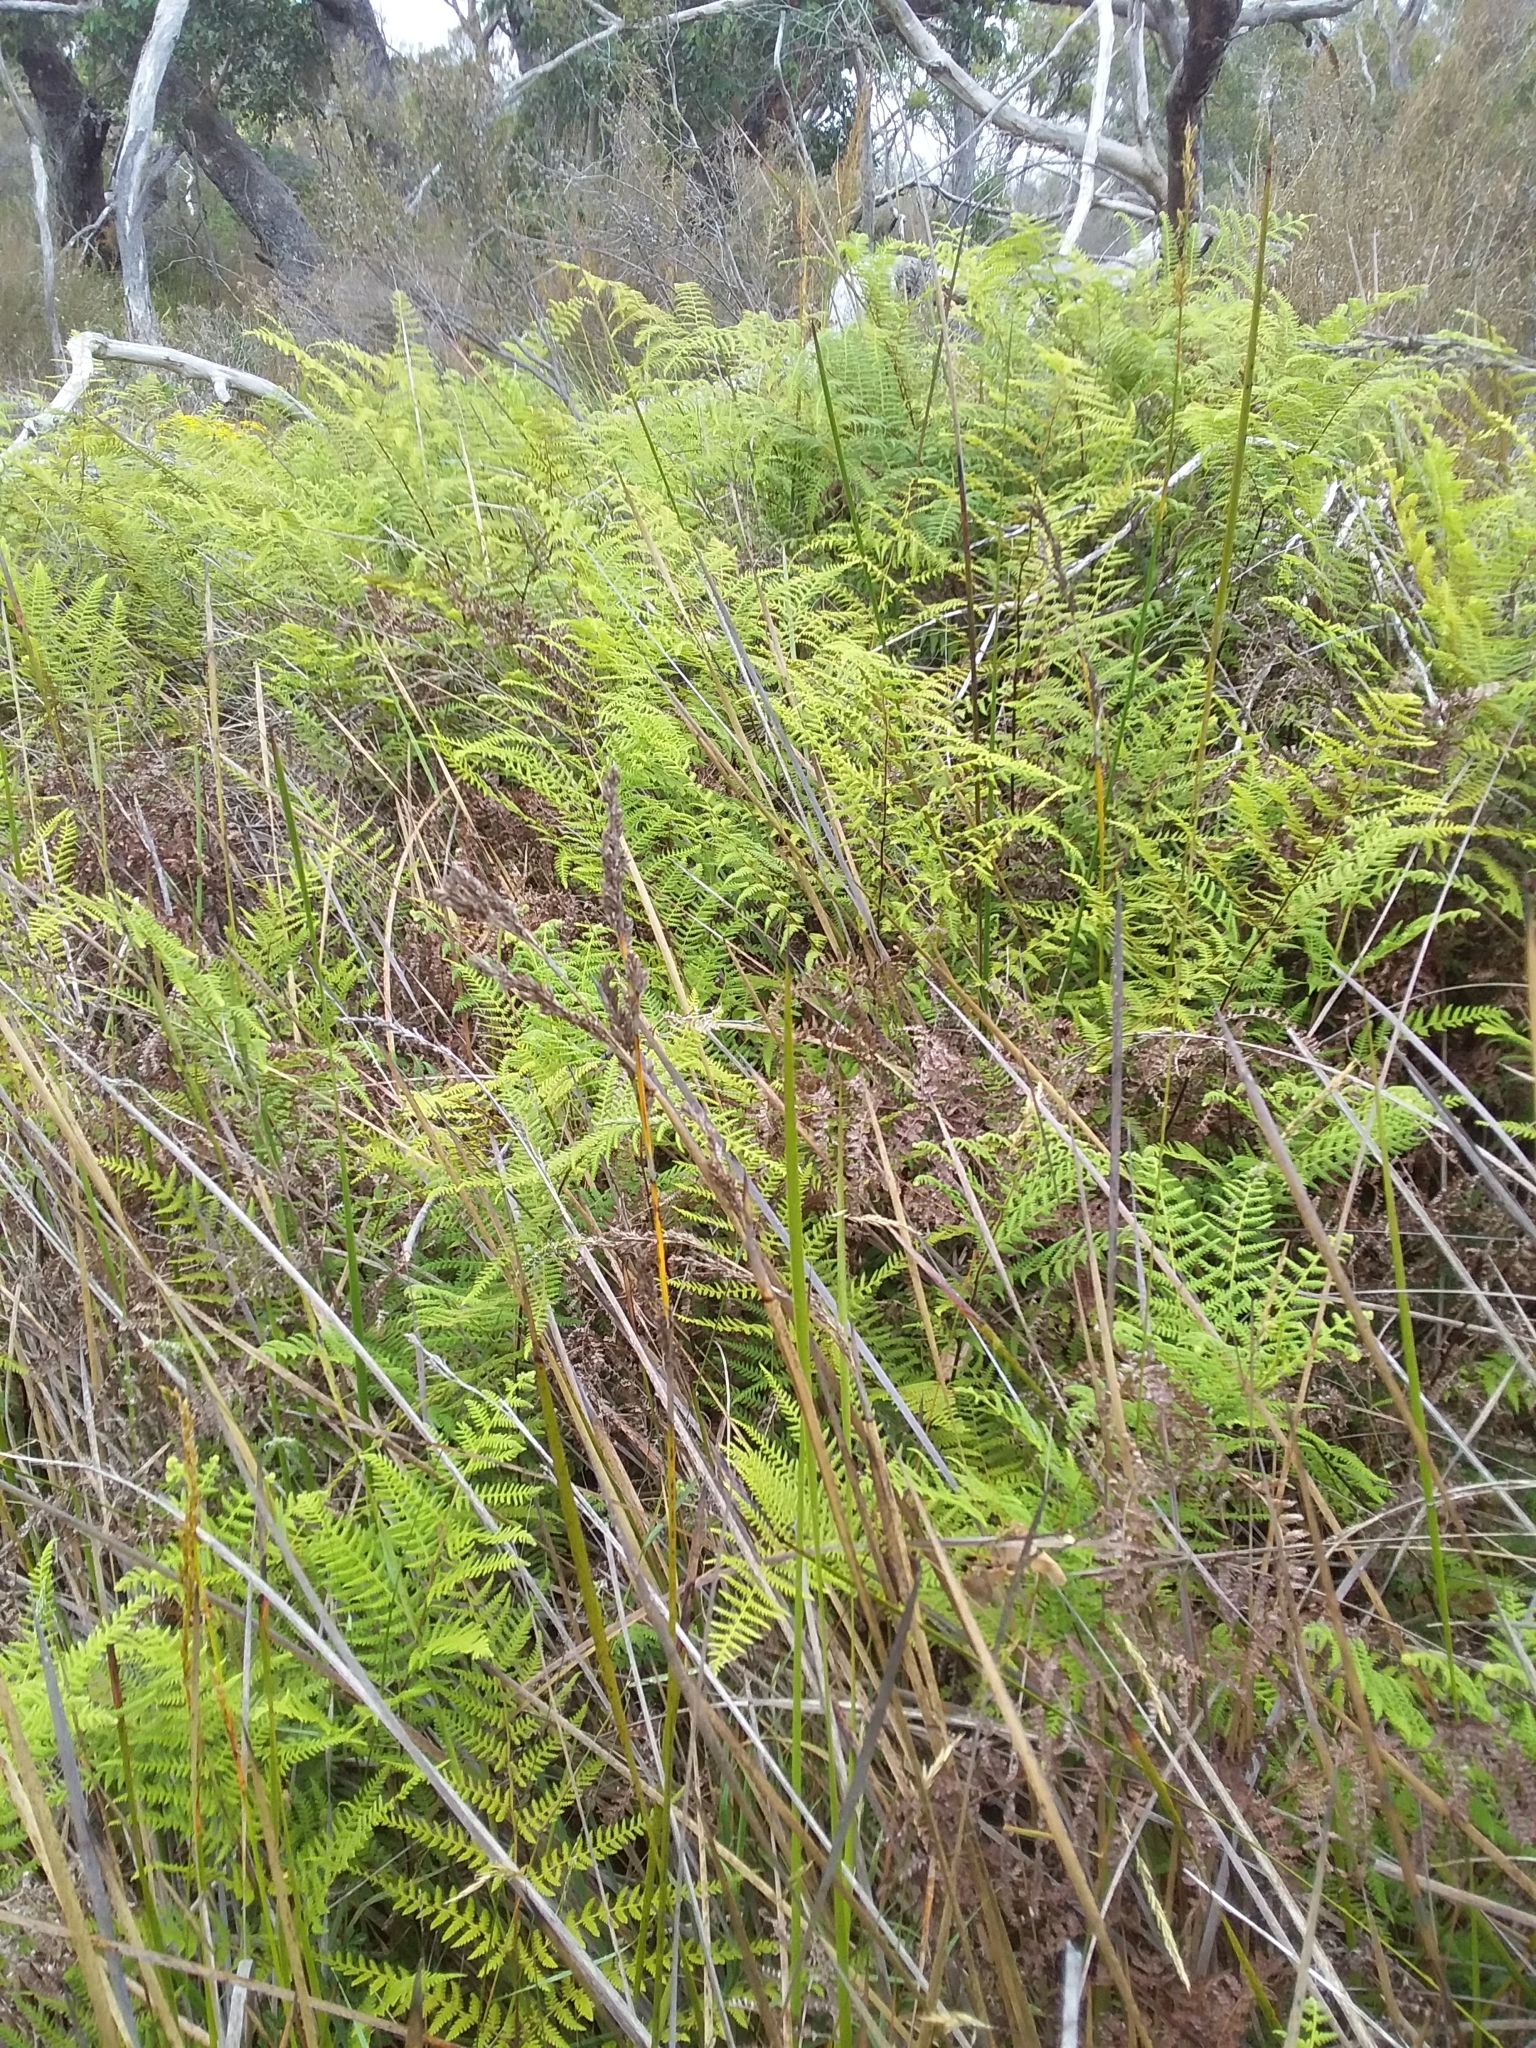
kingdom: Plantae
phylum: Tracheophyta
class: Polypodiopsida
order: Polypodiales
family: Dennstaedtiaceae
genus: Hypolepis
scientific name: Hypolepis rugosula
